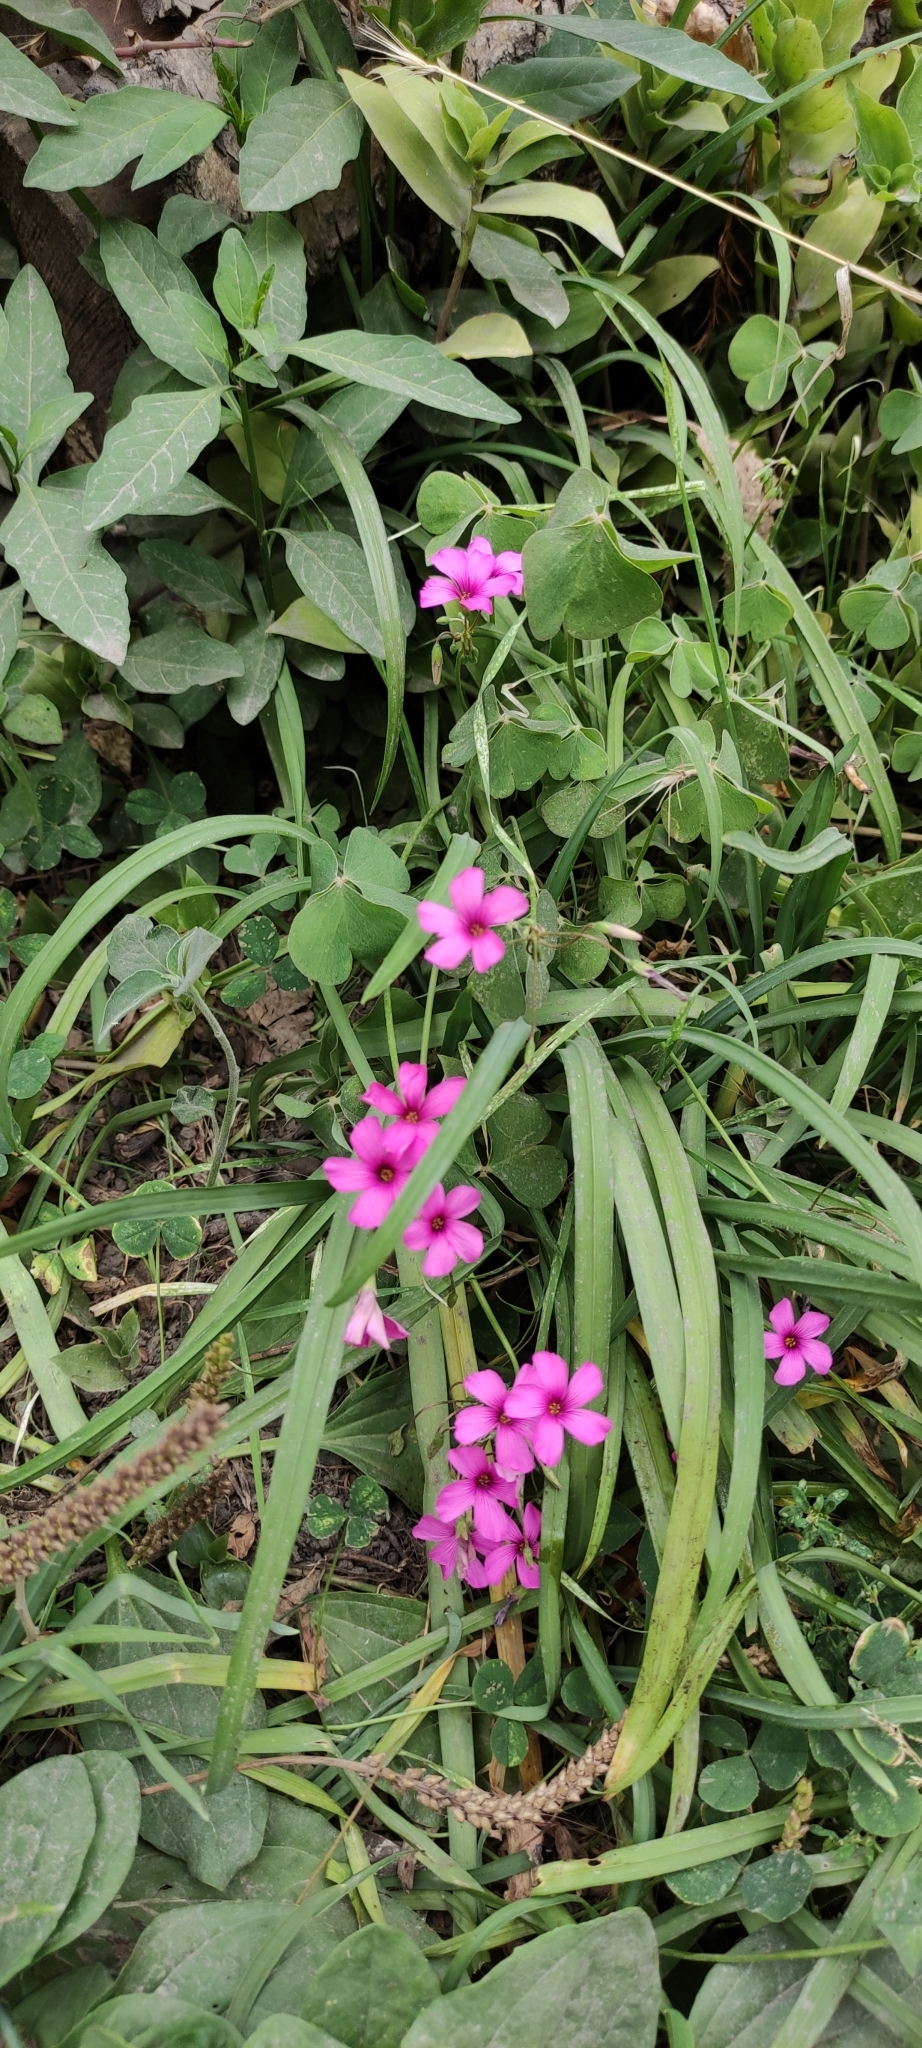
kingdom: Plantae
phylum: Tracheophyta
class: Magnoliopsida
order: Oxalidales
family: Oxalidaceae
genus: Oxalis
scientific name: Oxalis articulata
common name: Pink-sorrel
